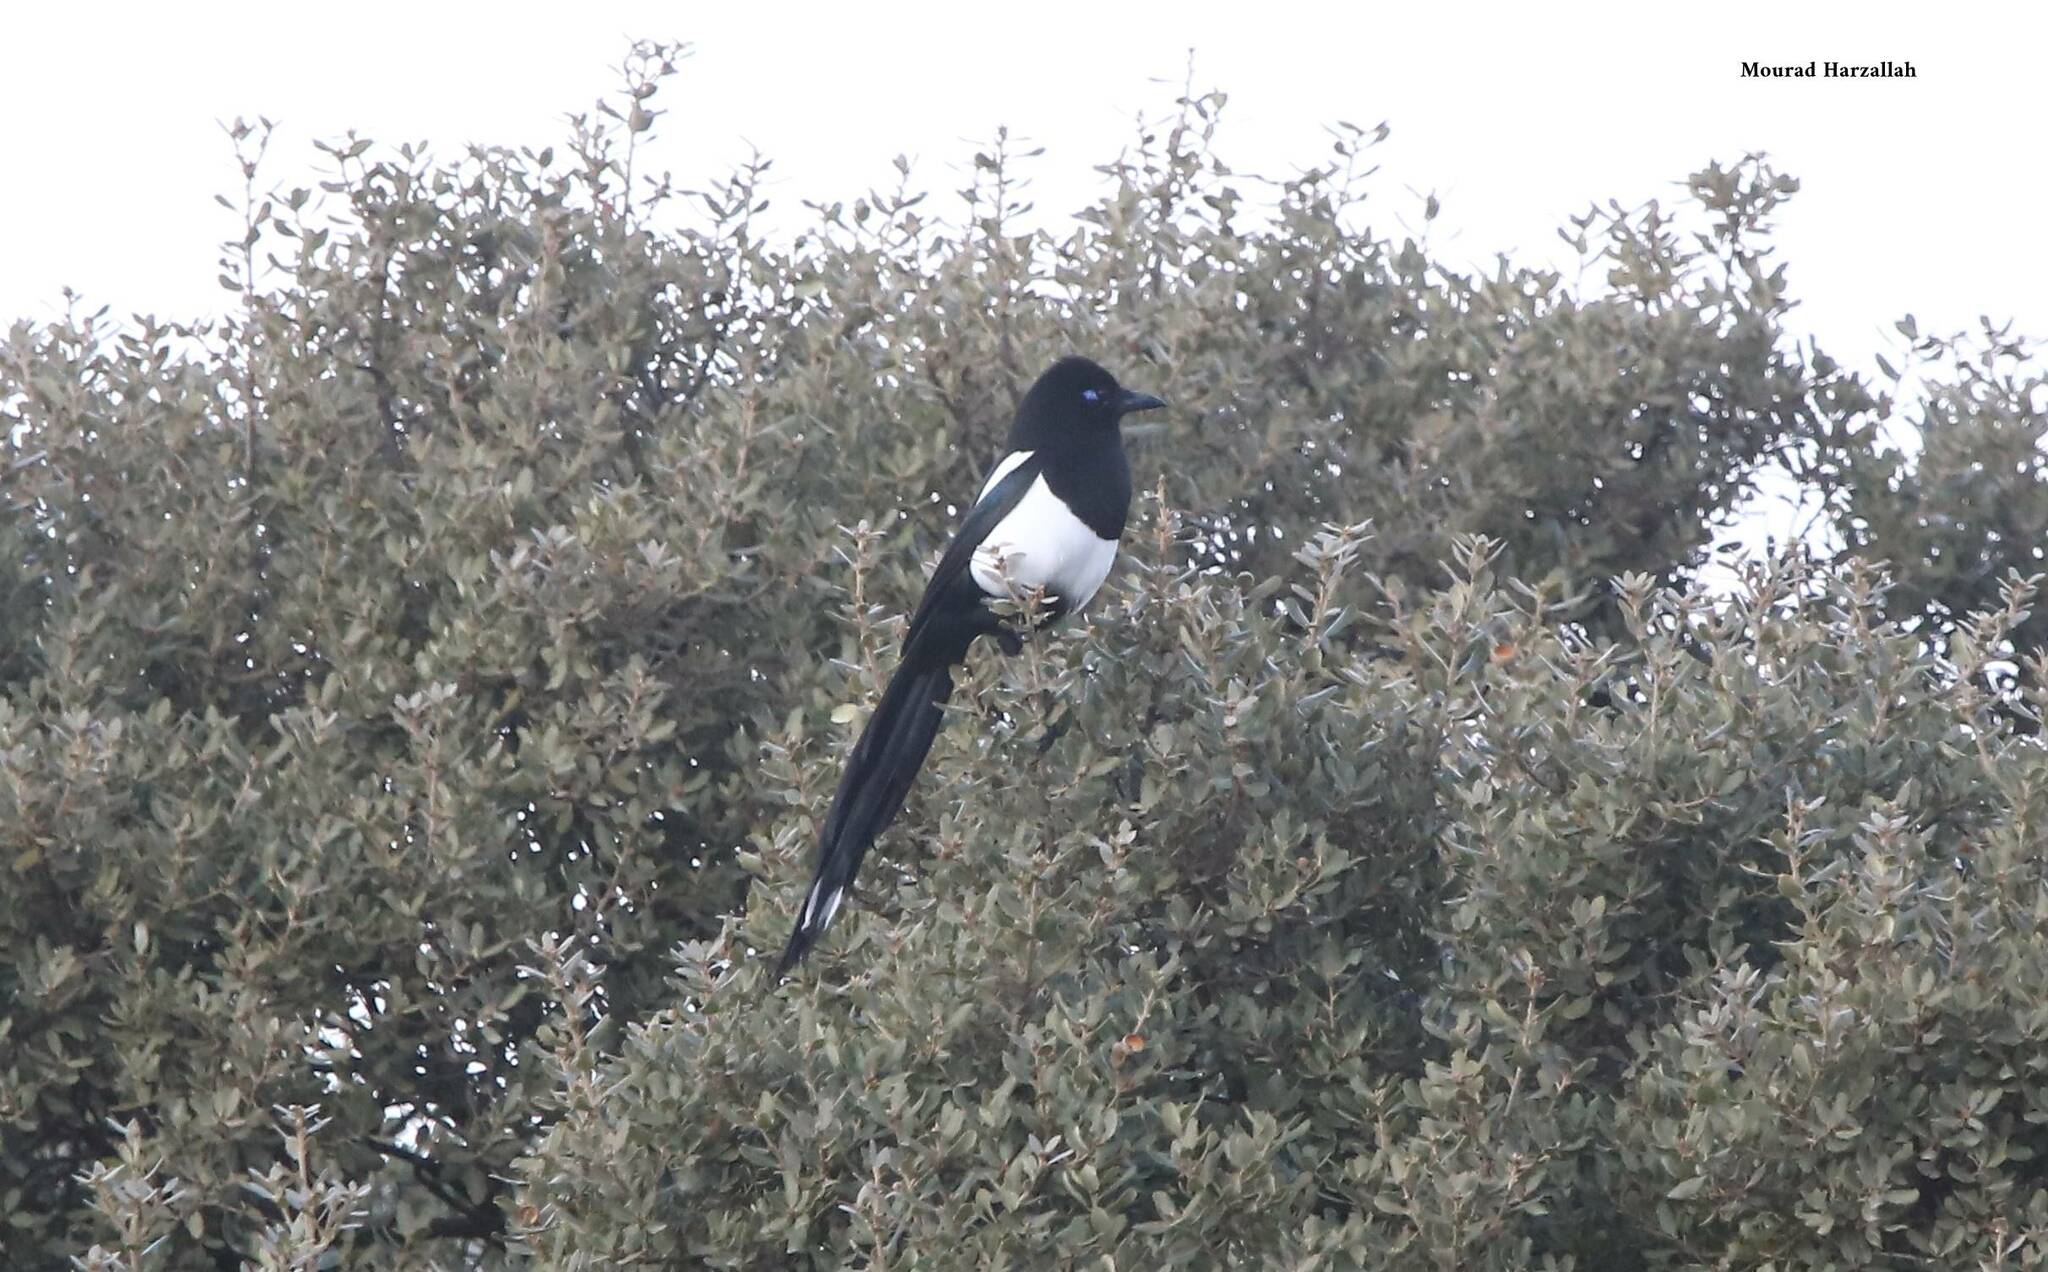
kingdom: Animalia
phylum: Chordata
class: Aves
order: Passeriformes
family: Corvidae
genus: Pica
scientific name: Pica mauritanica
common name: Maghreb magpie
